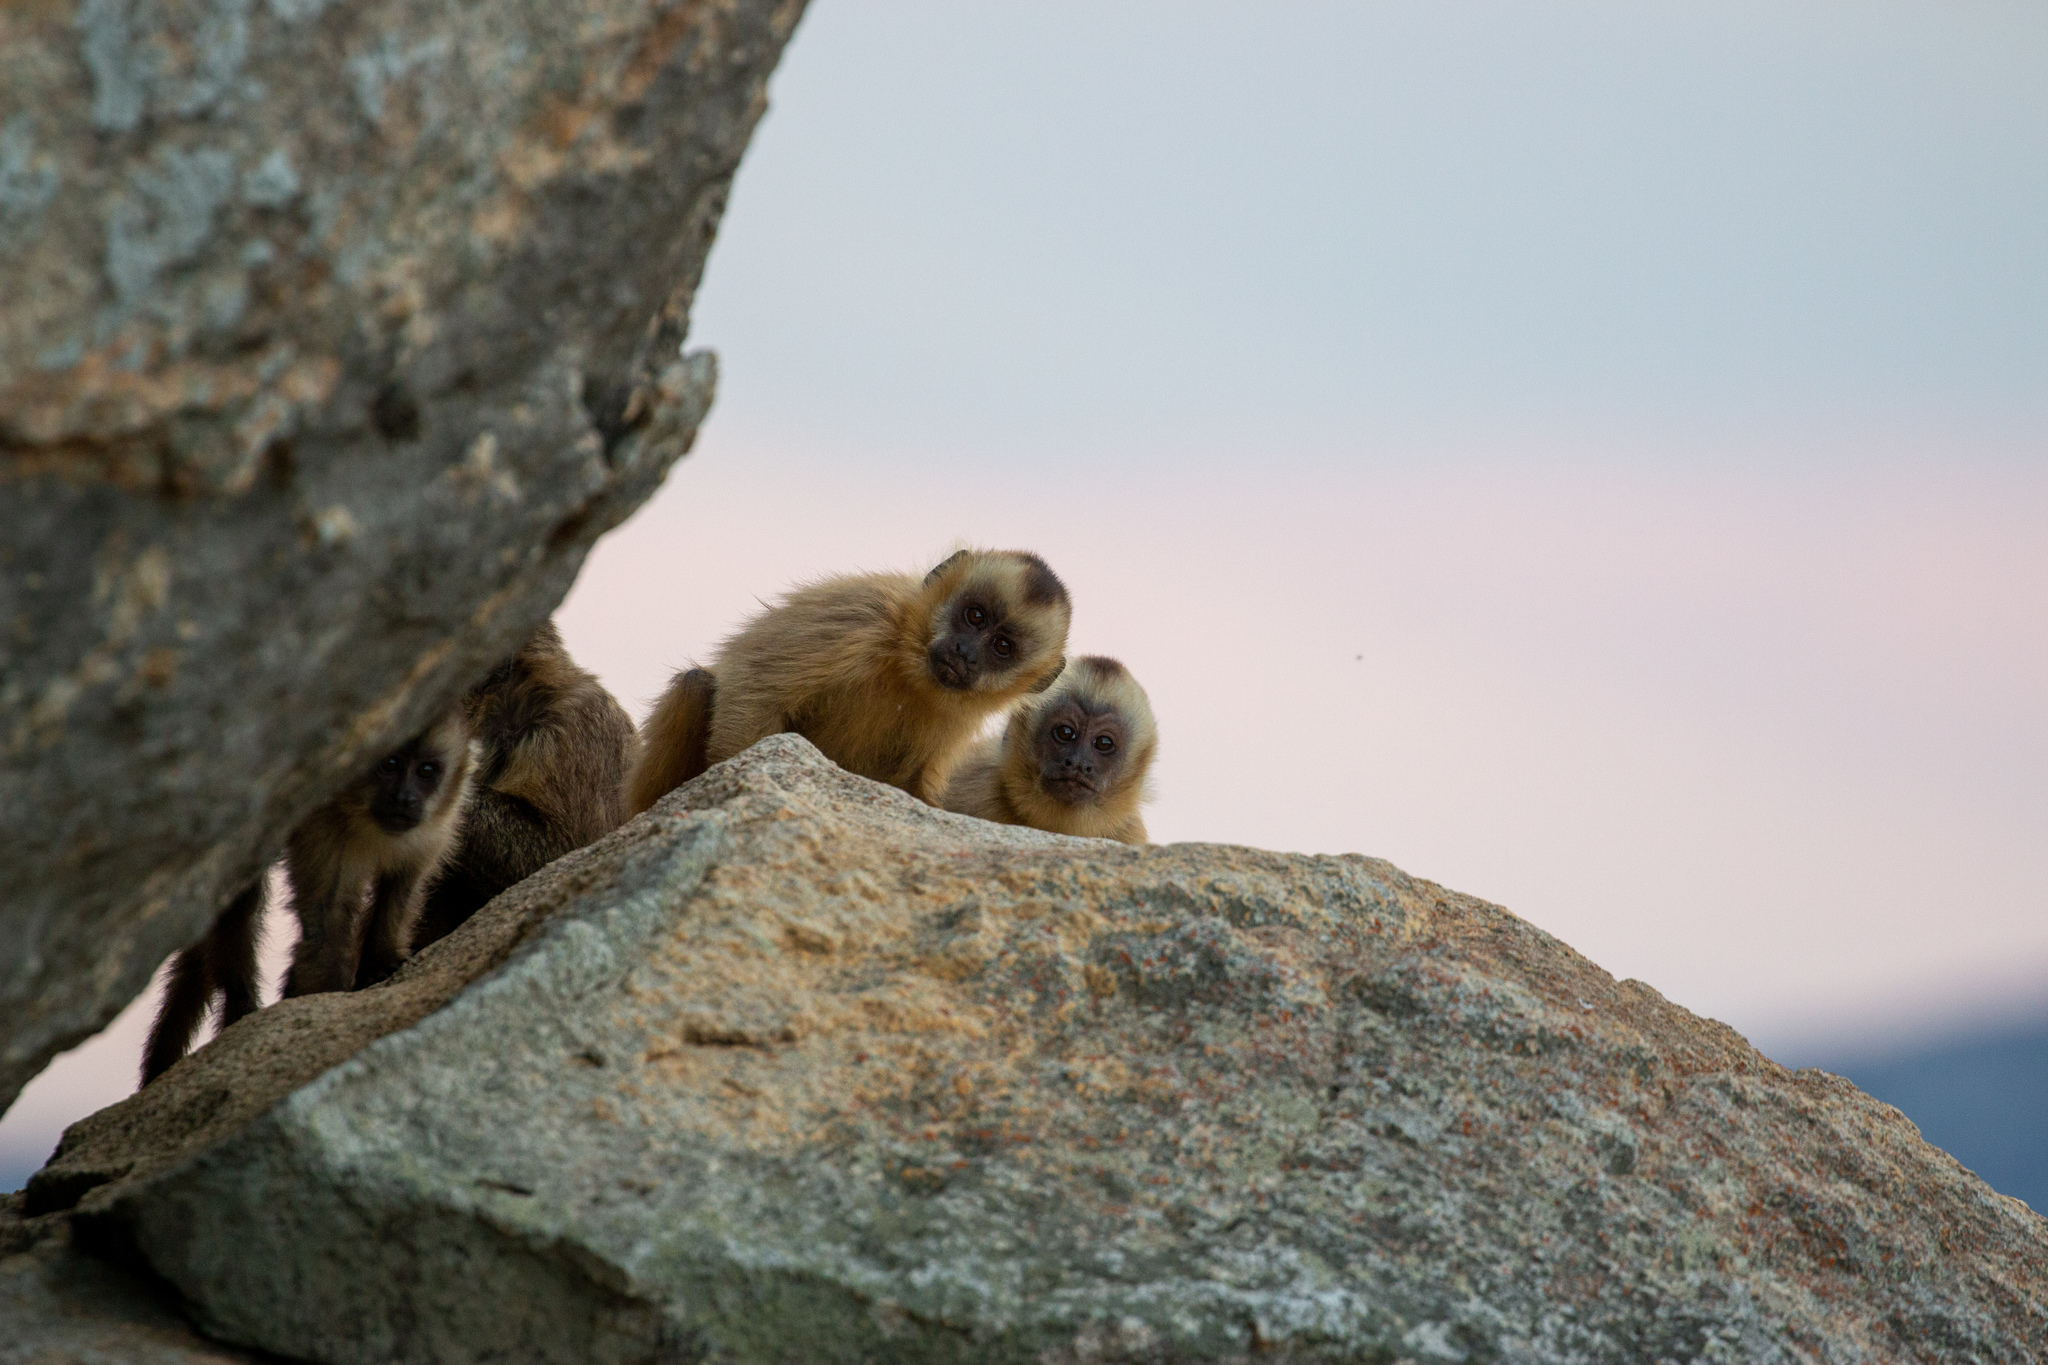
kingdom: Animalia
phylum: Chordata
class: Mammalia
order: Primates
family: Cebidae
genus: Sapajus
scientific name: Sapajus libidinosus
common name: Bearded capuchin
